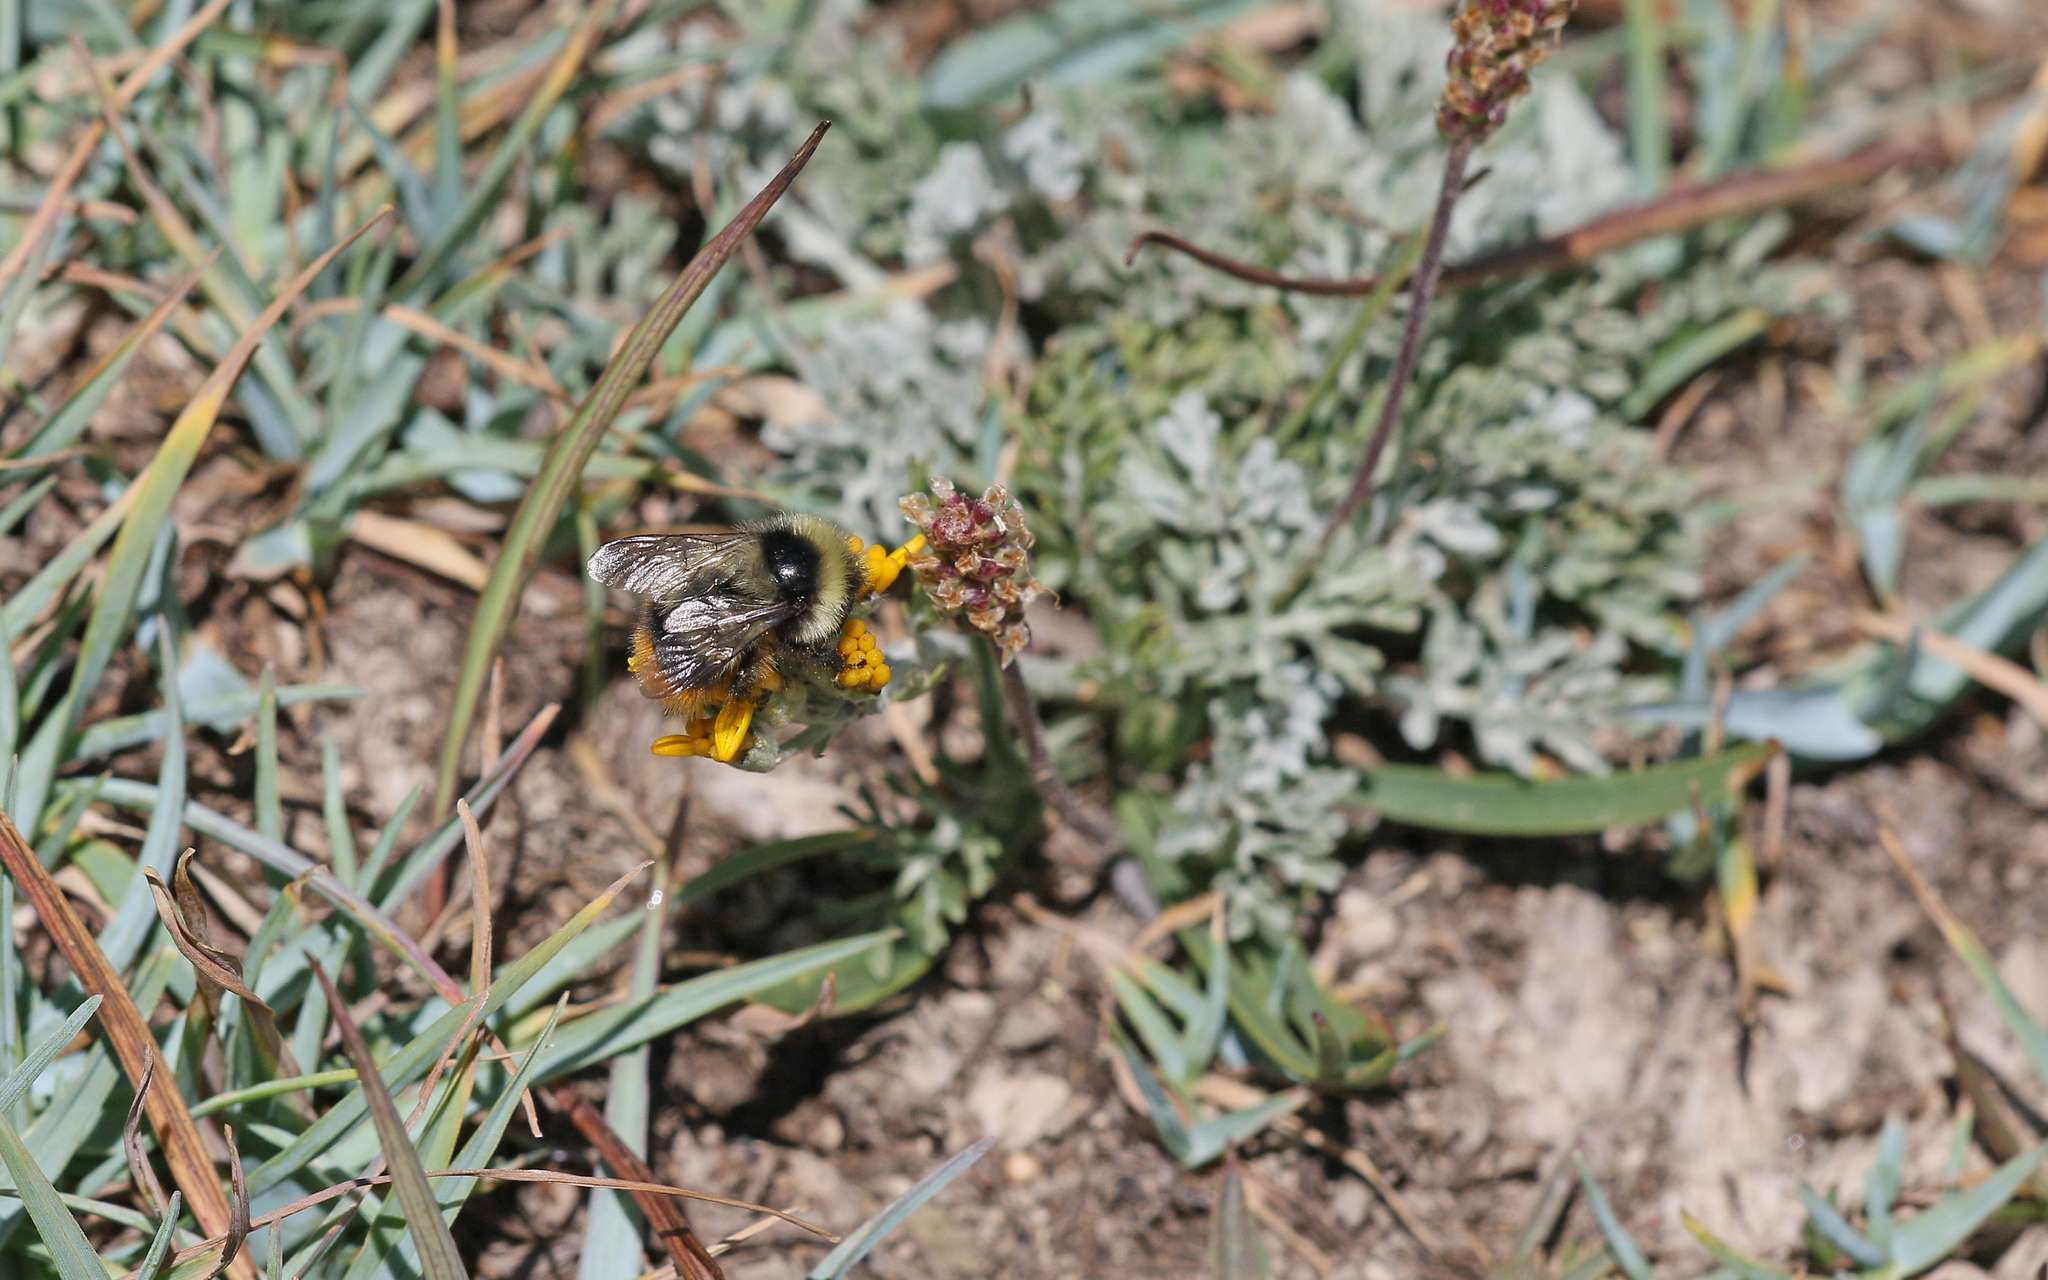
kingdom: Animalia
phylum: Arthropoda
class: Insecta
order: Hymenoptera
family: Apidae
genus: Bombus
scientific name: Bombus sichelii
